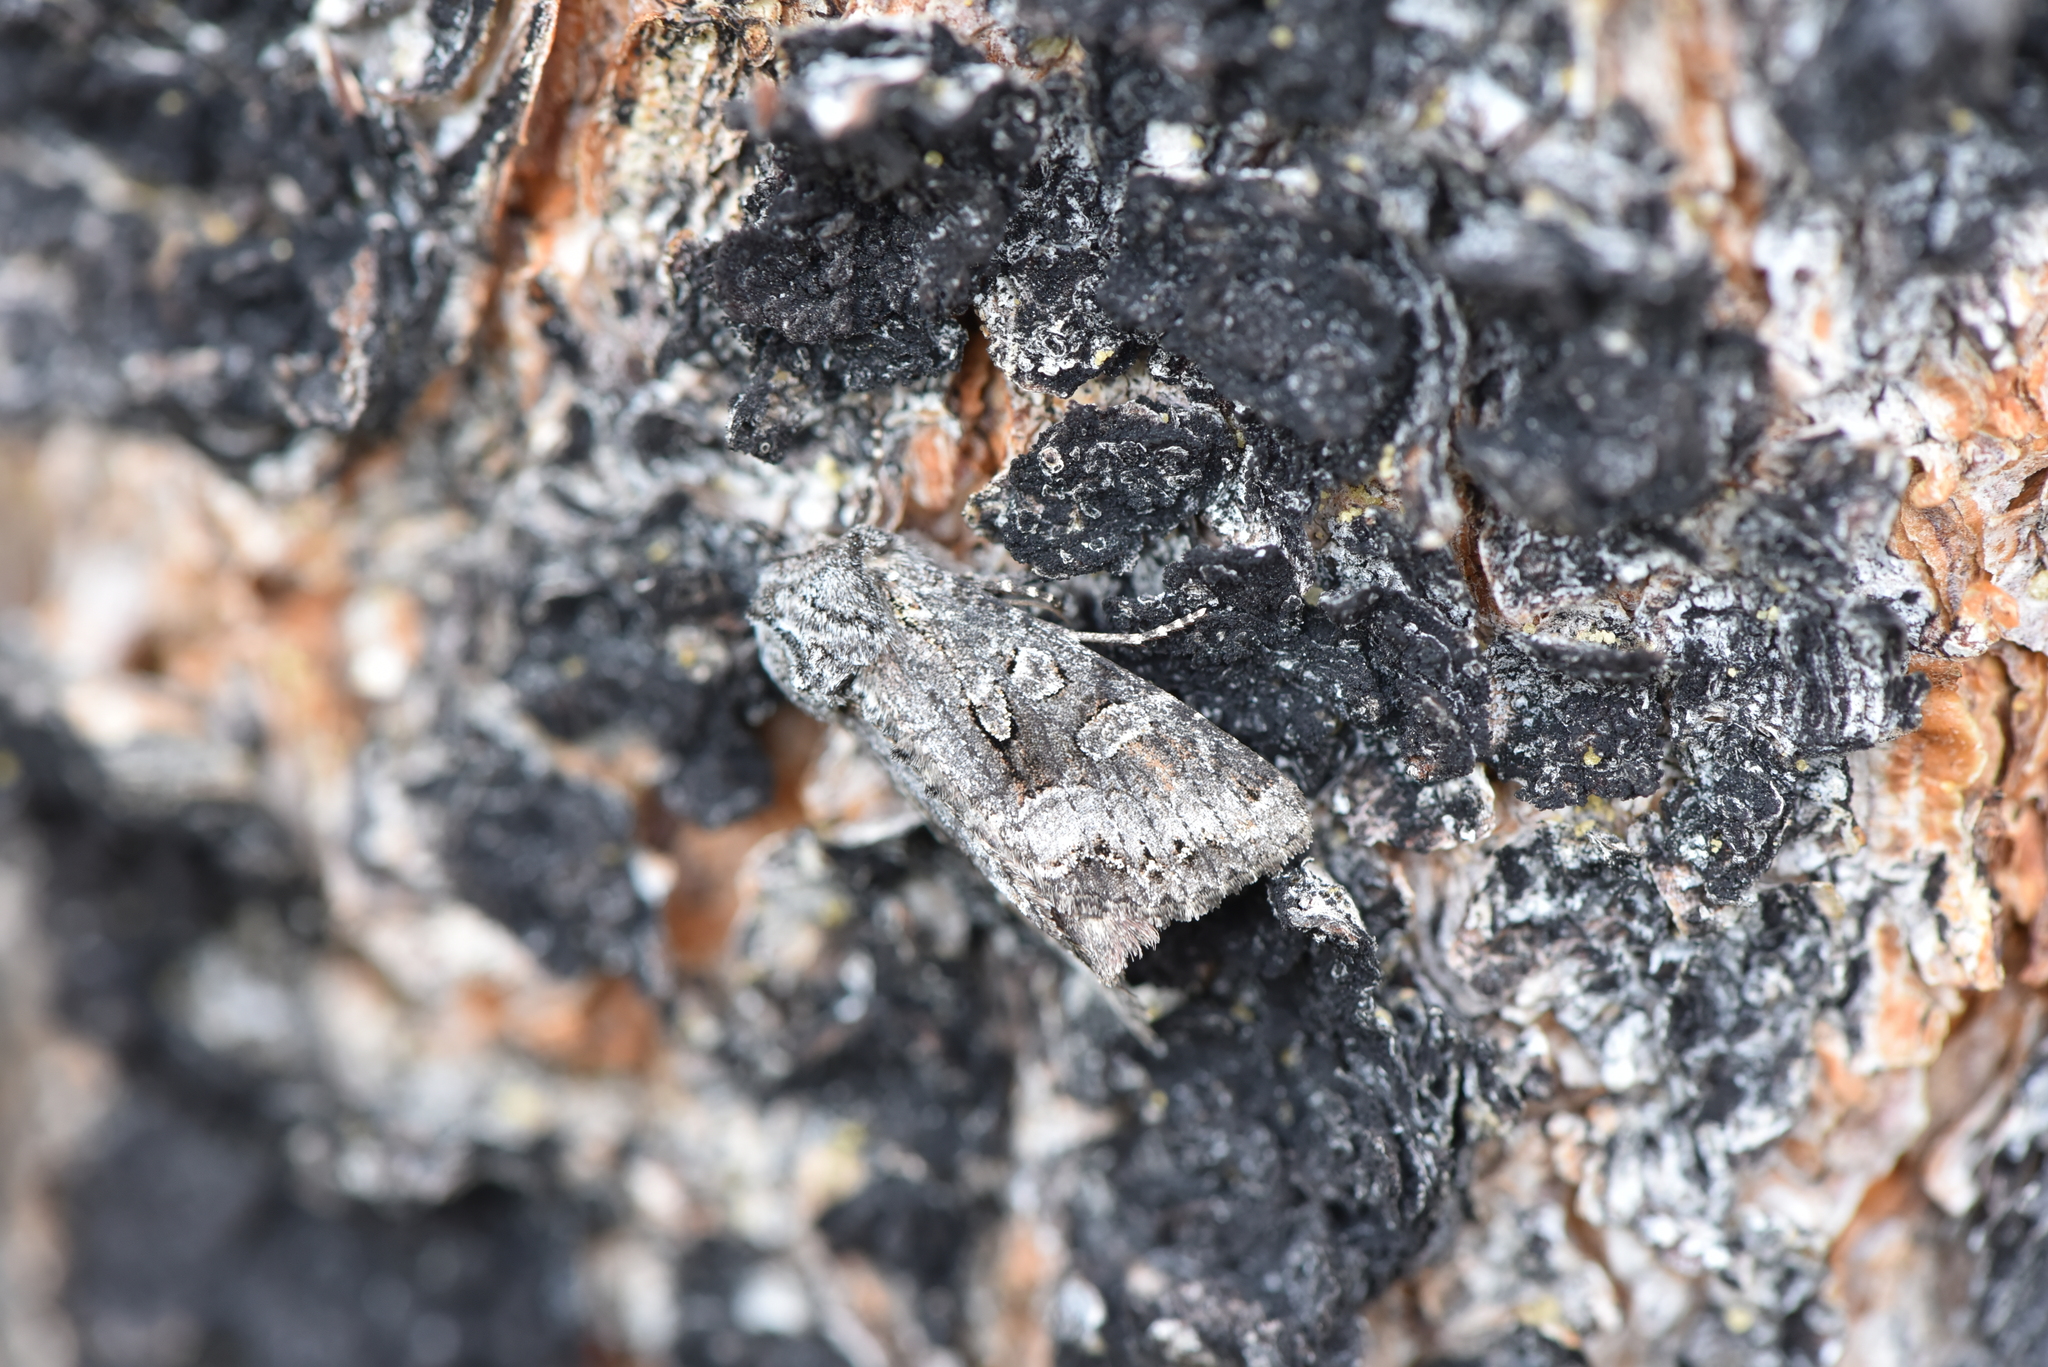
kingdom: Animalia
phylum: Arthropoda
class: Insecta
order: Lepidoptera
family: Noctuidae
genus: Papestra
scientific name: Papestra quadrata
